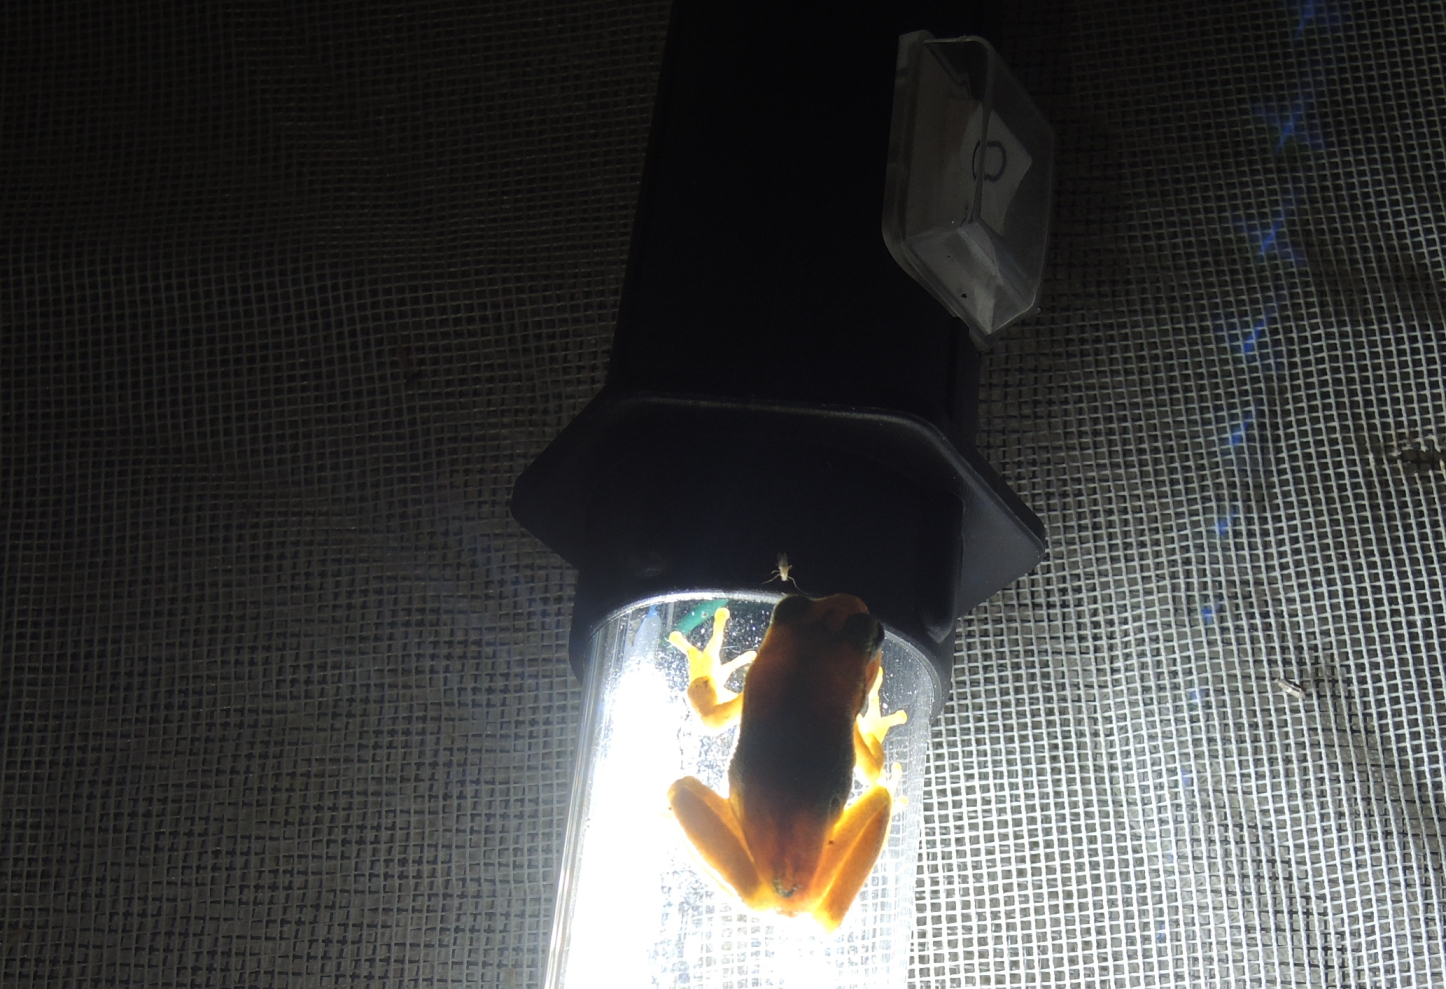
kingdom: Animalia
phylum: Chordata
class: Amphibia
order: Anura
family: Hylidae
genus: Hyla
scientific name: Hyla orientalis
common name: Caucasian treefrog
